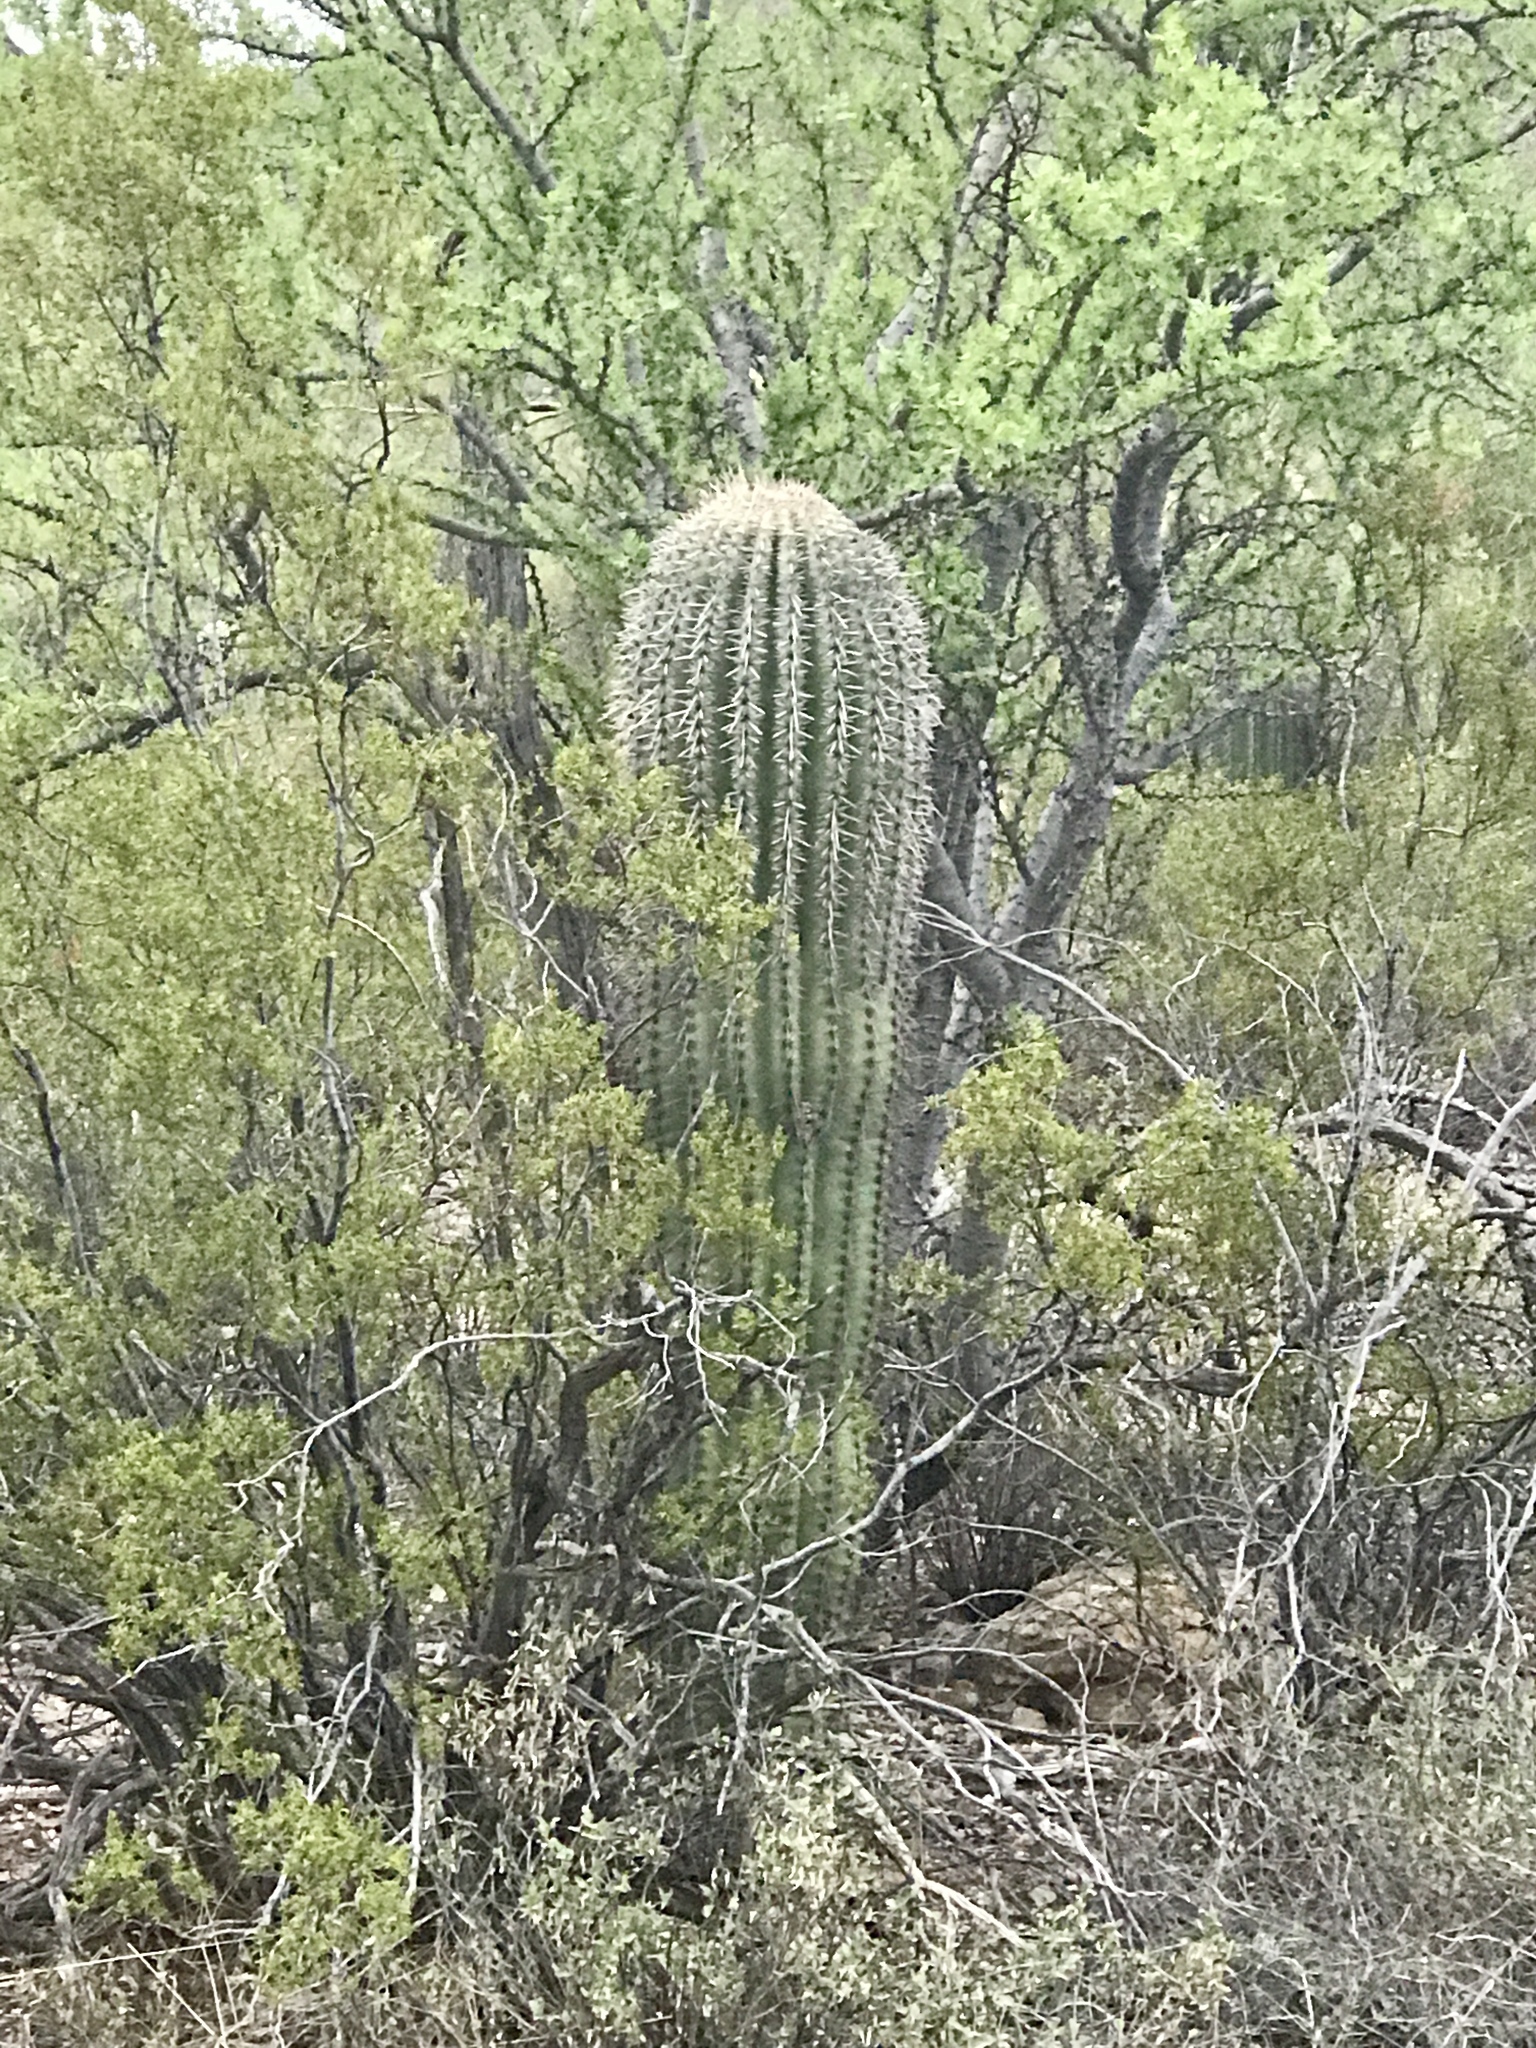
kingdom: Plantae
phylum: Tracheophyta
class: Magnoliopsida
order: Caryophyllales
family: Cactaceae
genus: Carnegiea
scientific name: Carnegiea gigantea
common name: Saguaro
